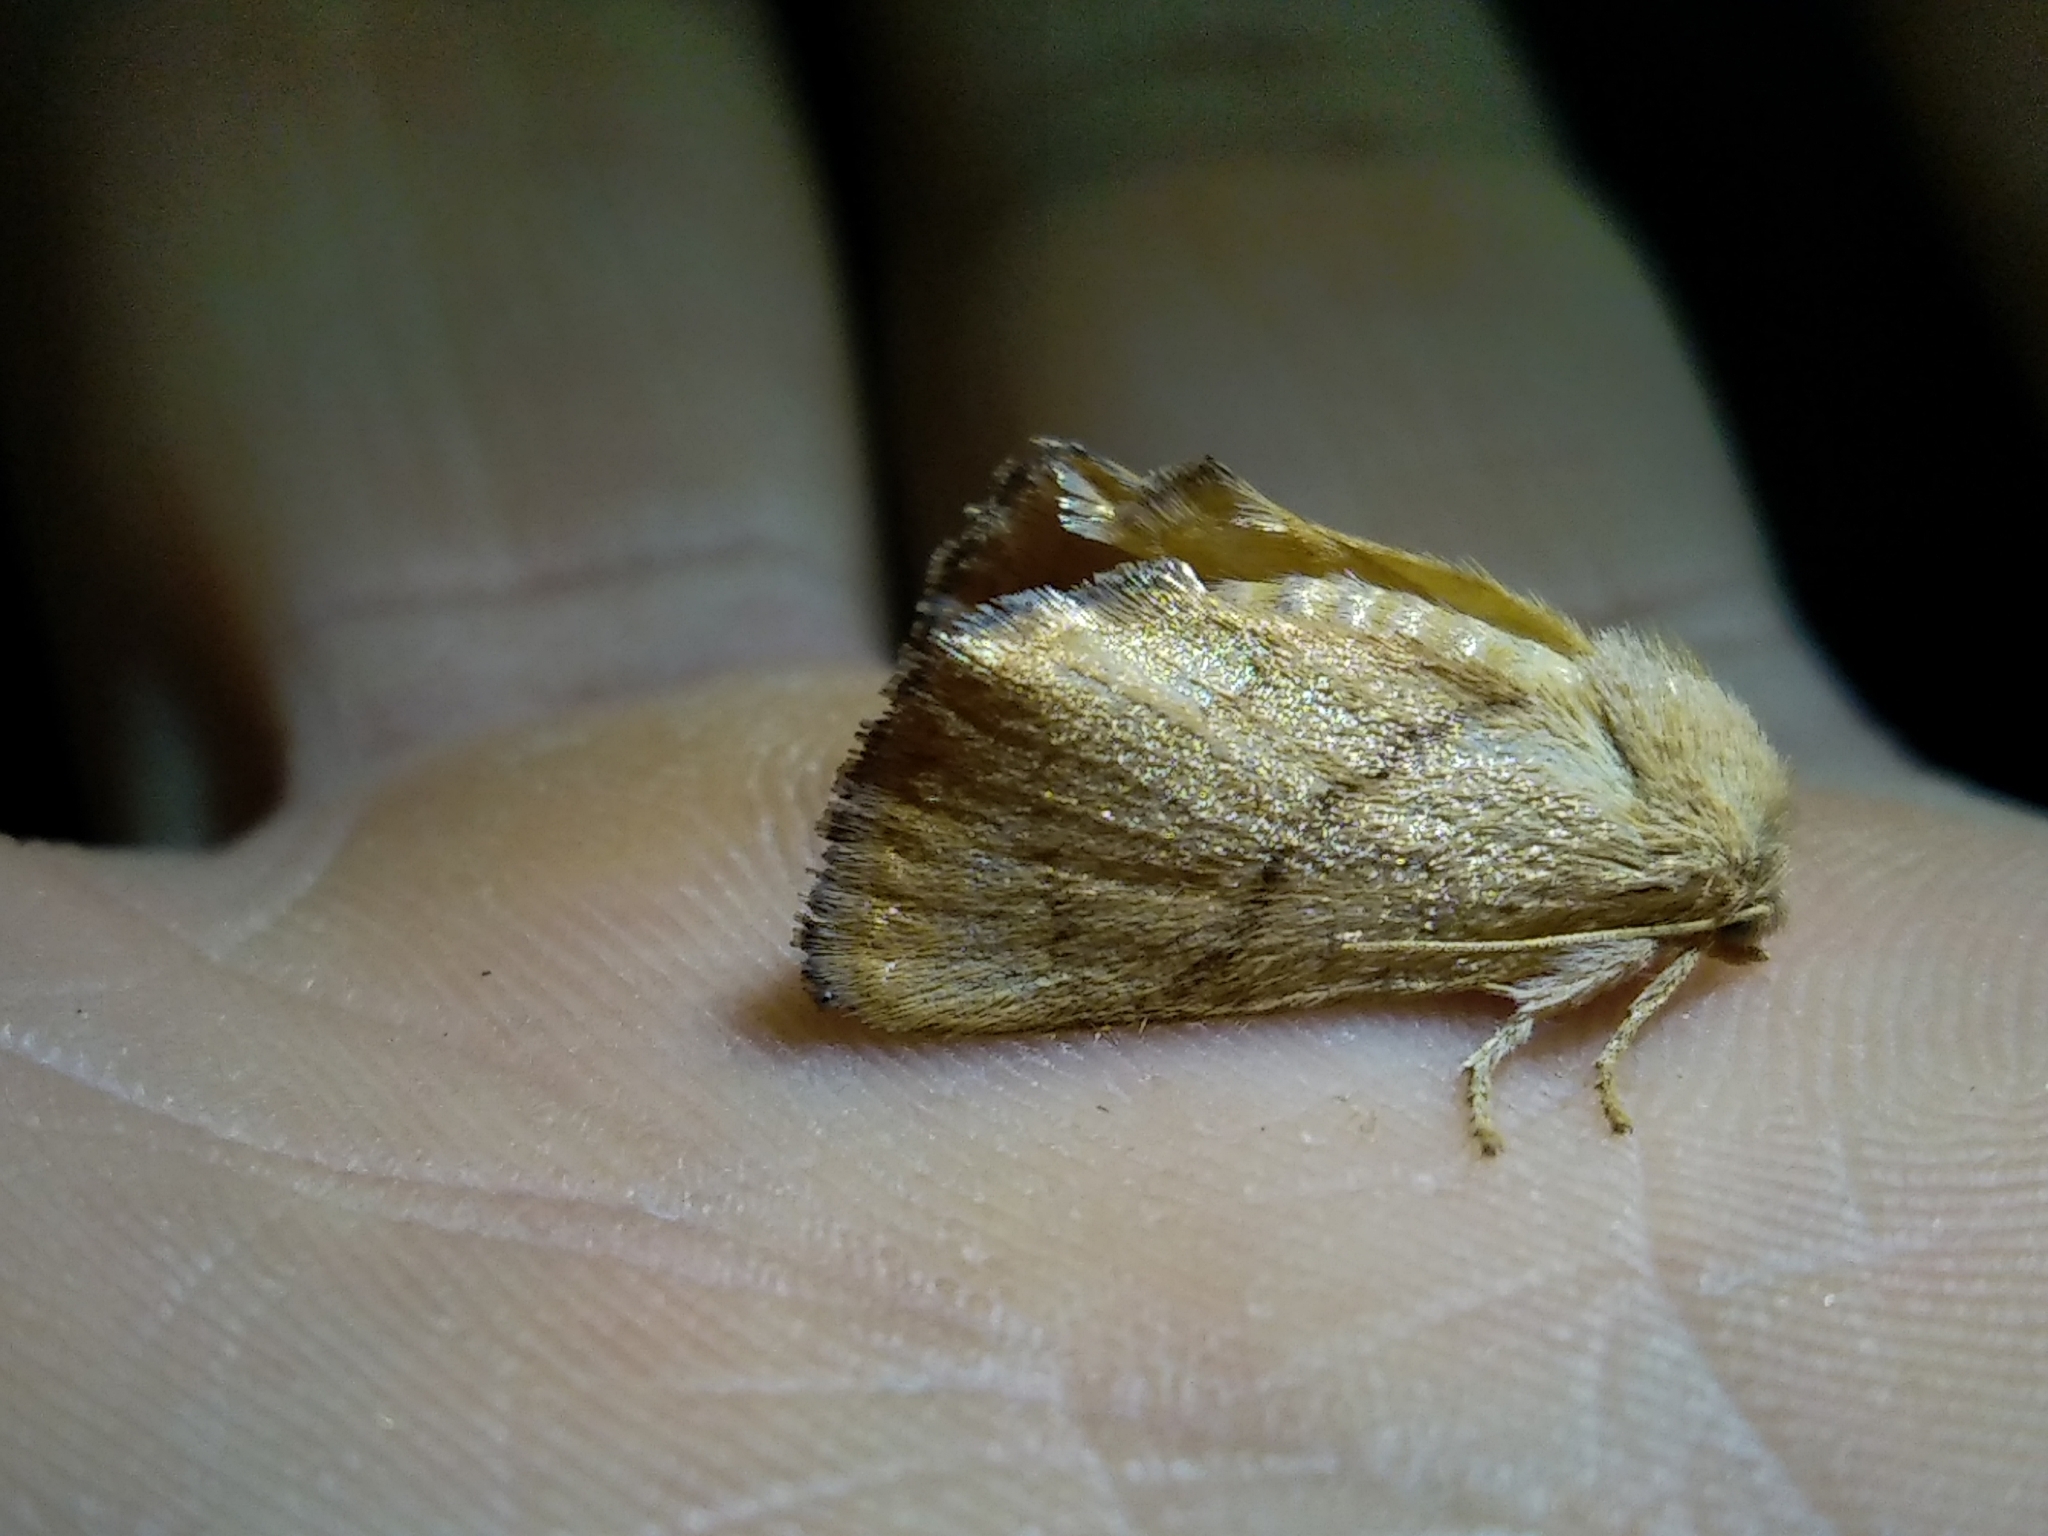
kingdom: Animalia
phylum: Arthropoda
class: Insecta
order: Lepidoptera
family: Limacodidae
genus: Apoda
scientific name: Apoda limacodes
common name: Festoon
